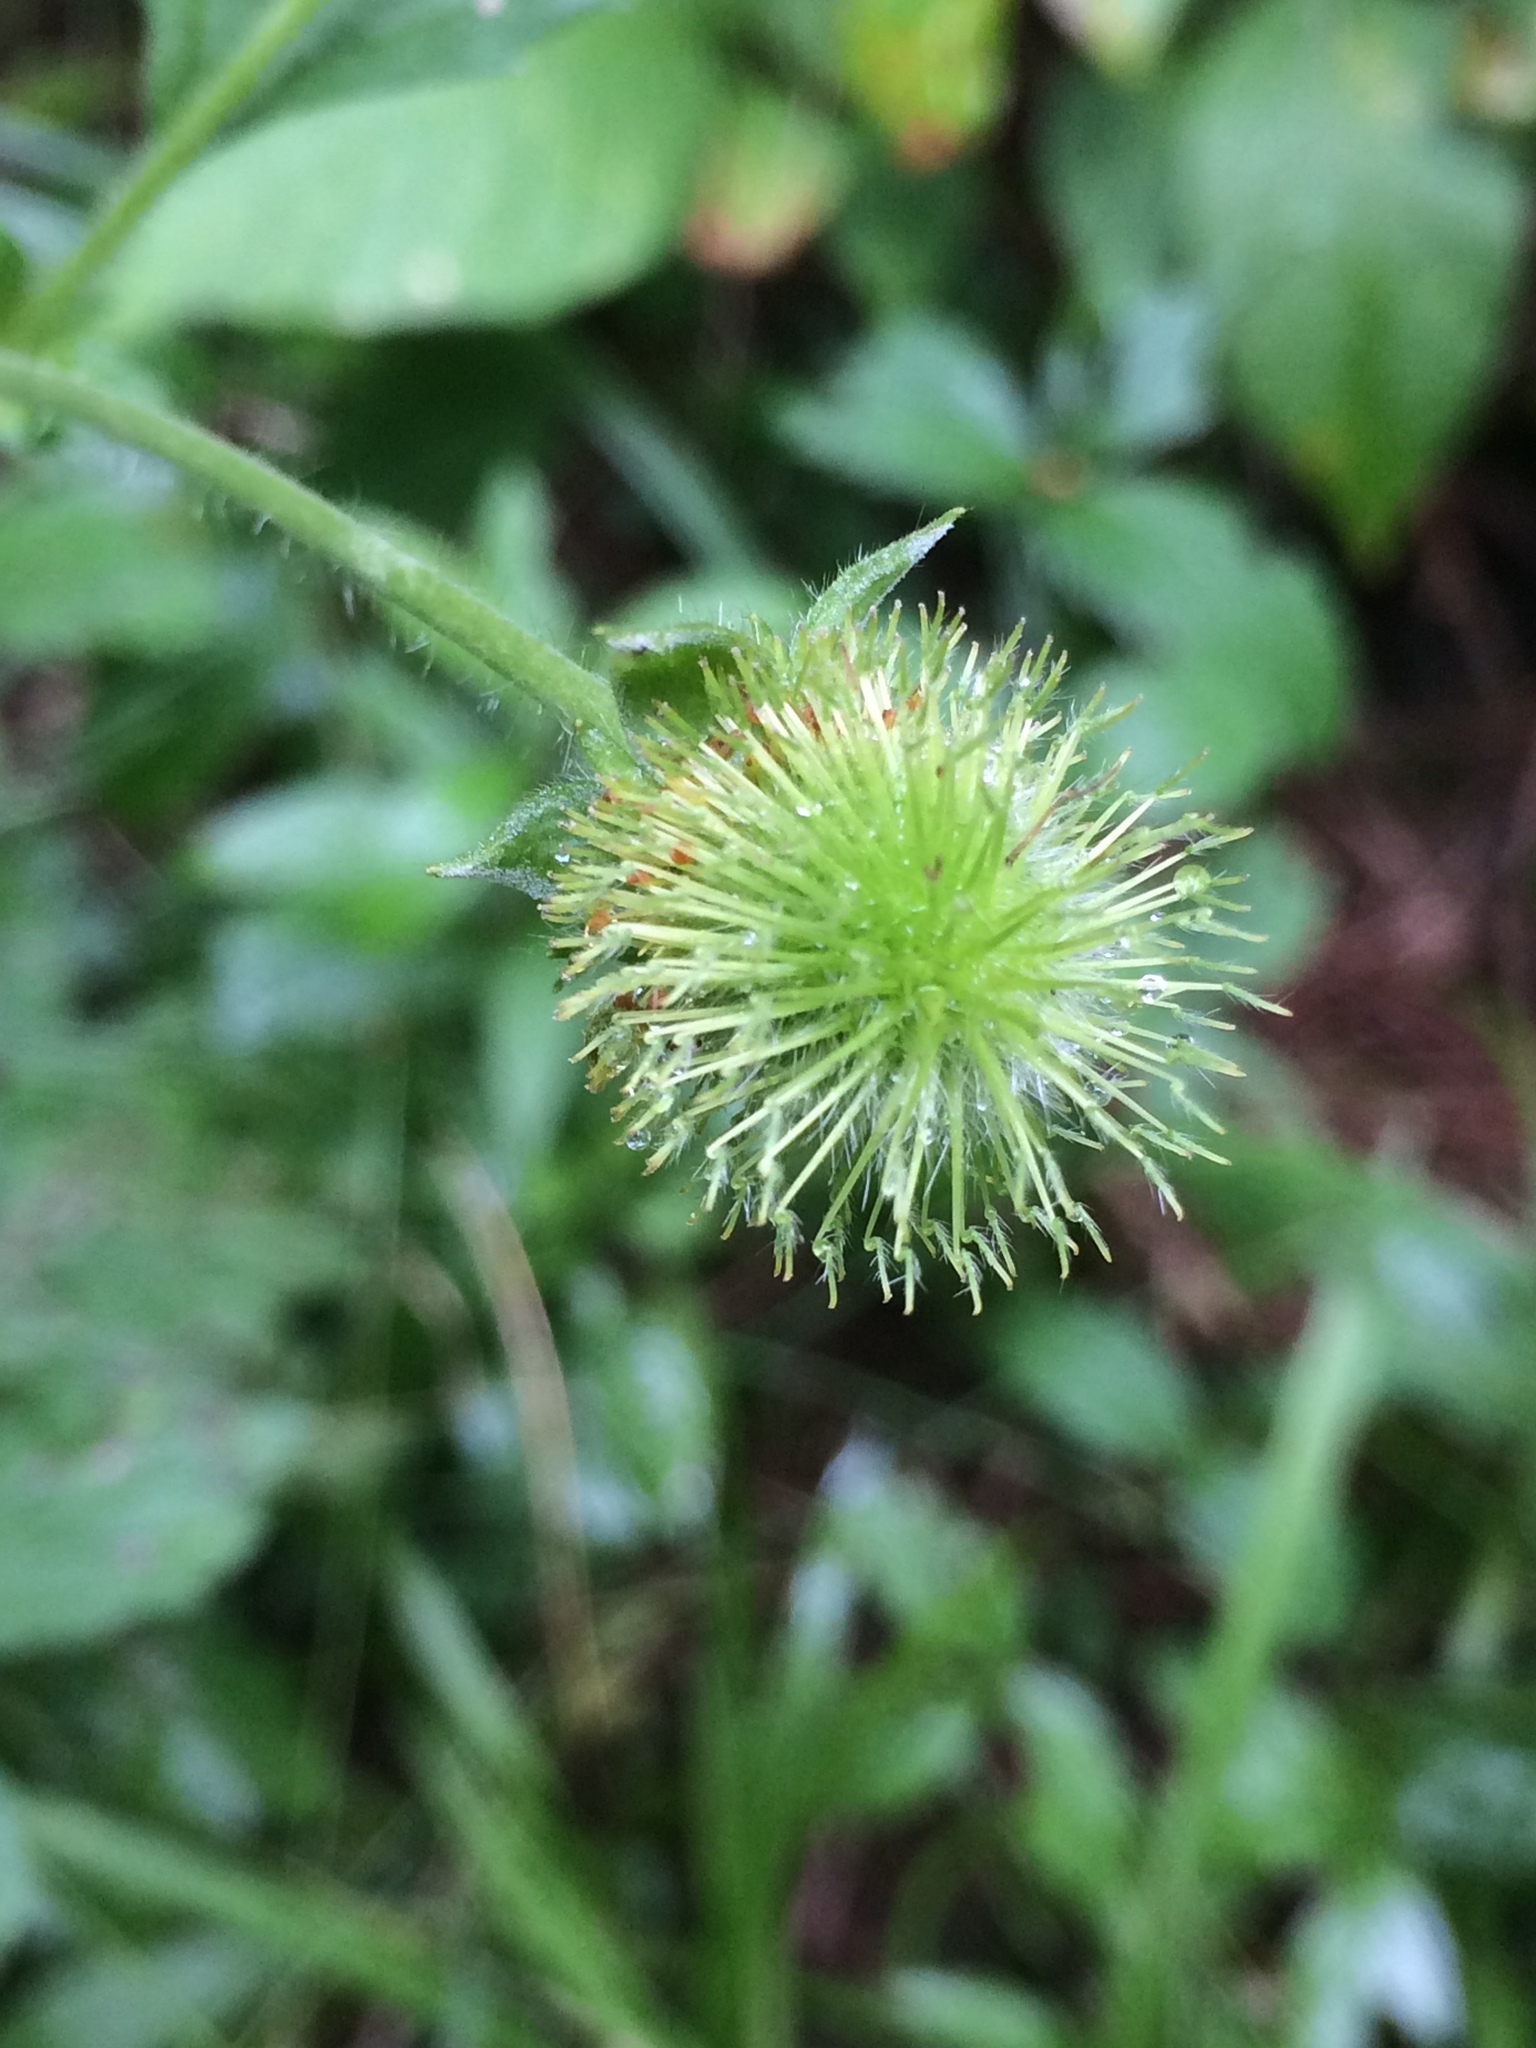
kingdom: Plantae
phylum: Tracheophyta
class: Magnoliopsida
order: Rosales
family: Rosaceae
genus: Geum
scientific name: Geum aleppicum
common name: Yellow avens
